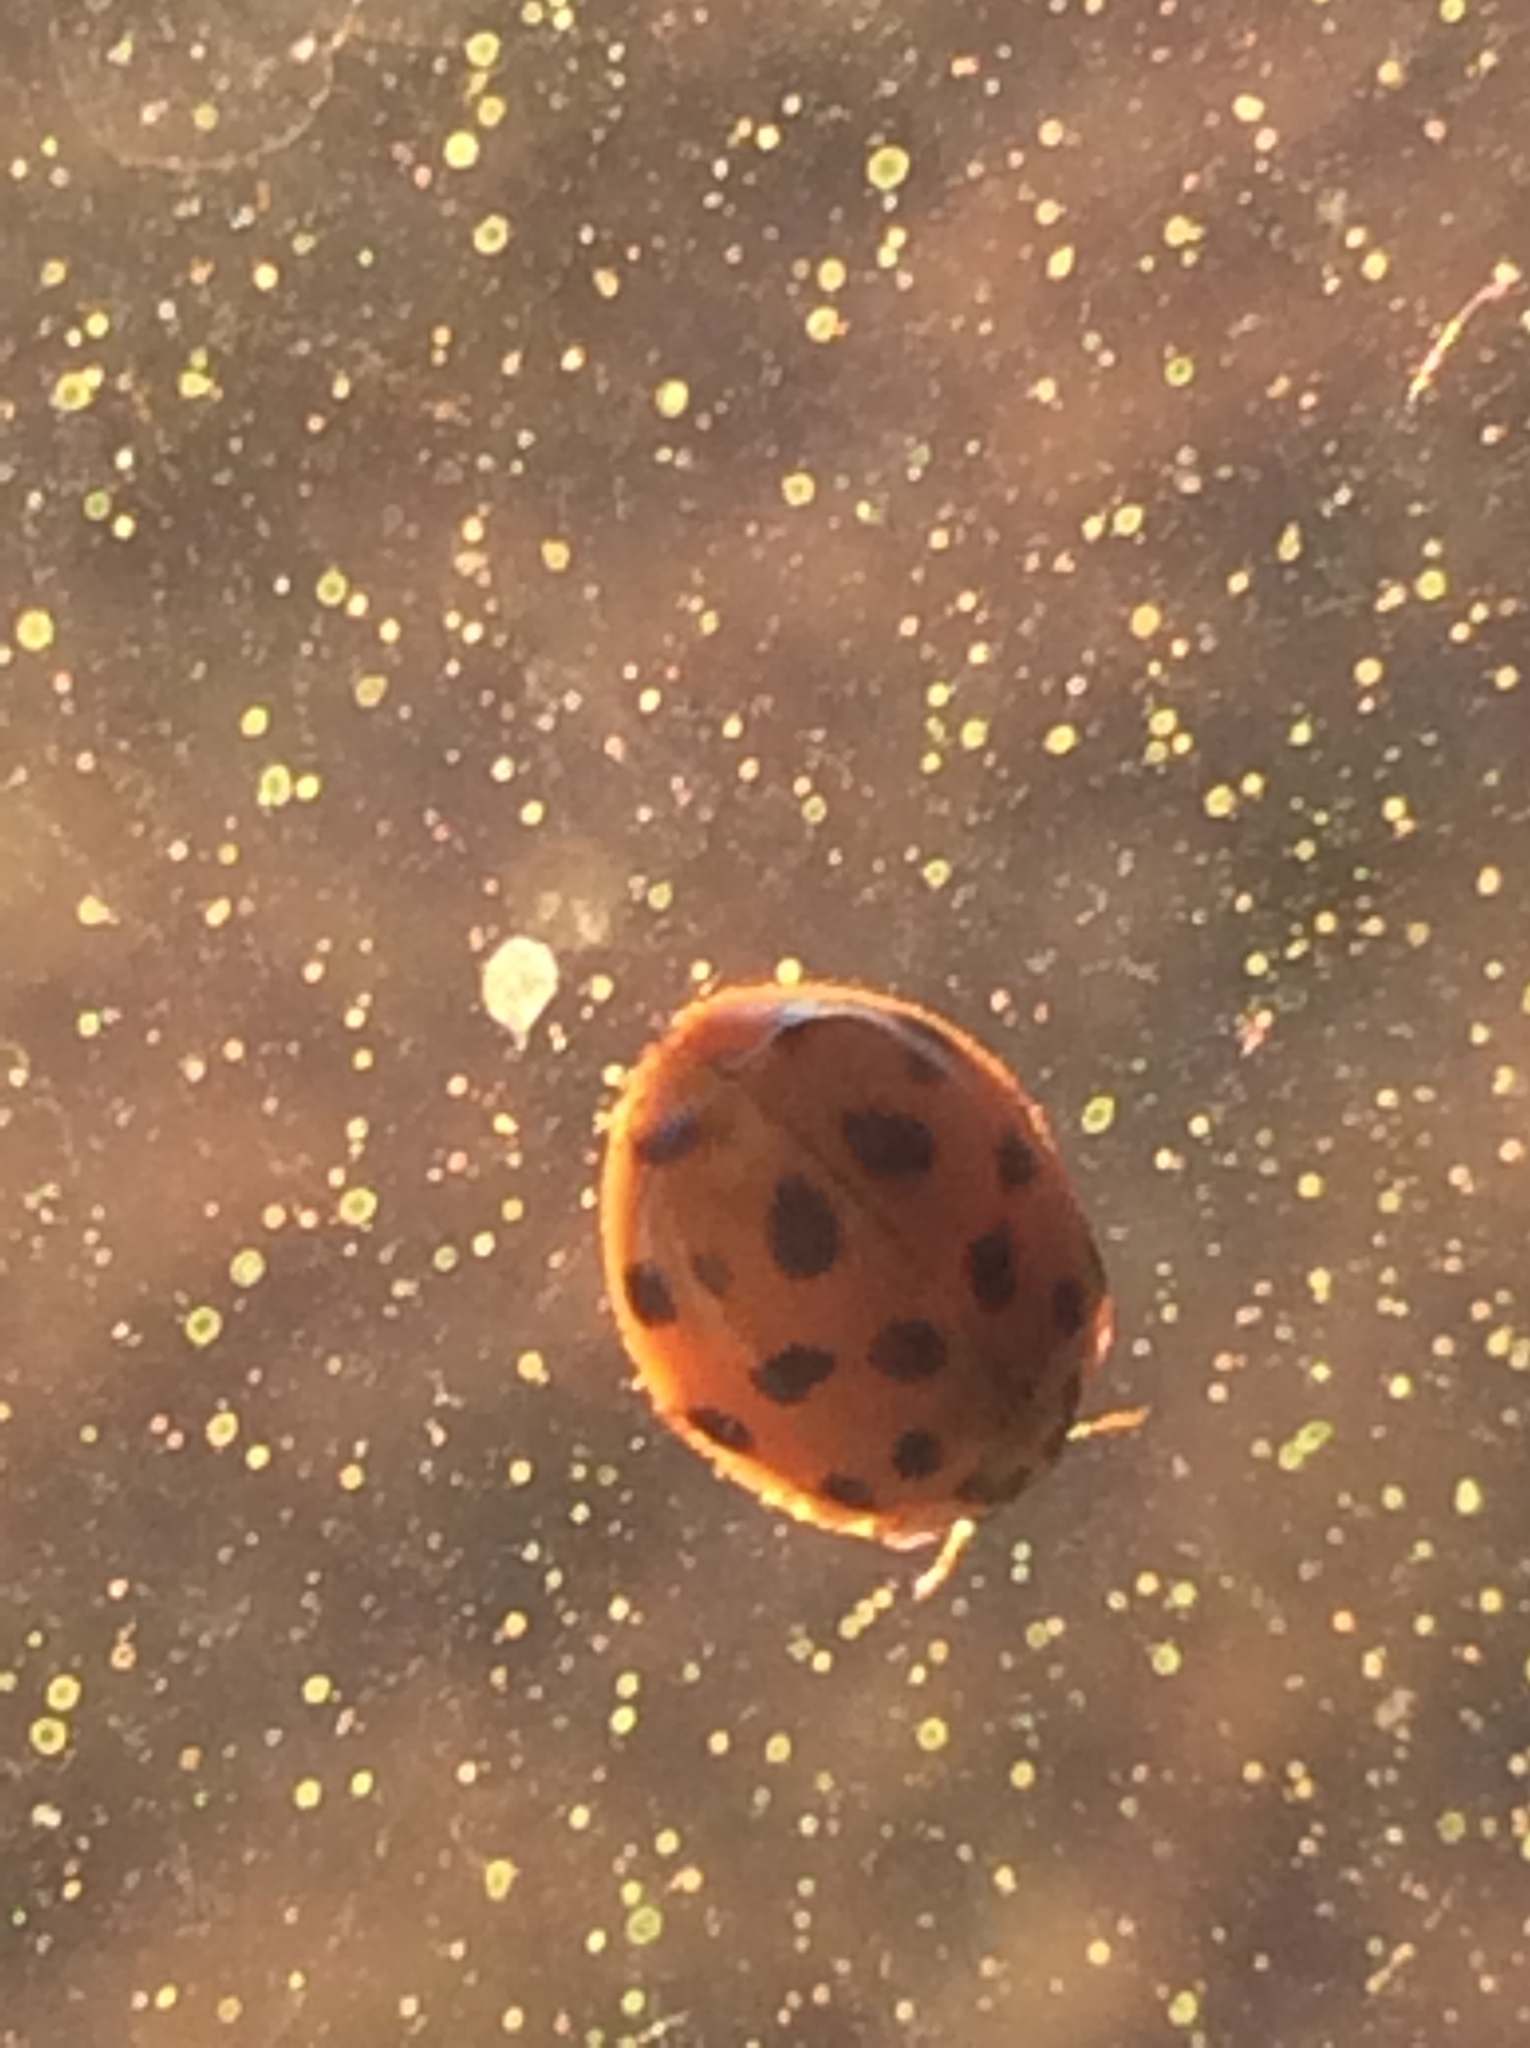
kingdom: Animalia
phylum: Arthropoda
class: Insecta
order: Coleoptera
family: Coccinellidae
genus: Harmonia
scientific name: Harmonia axyridis
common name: Harlequin ladybird
